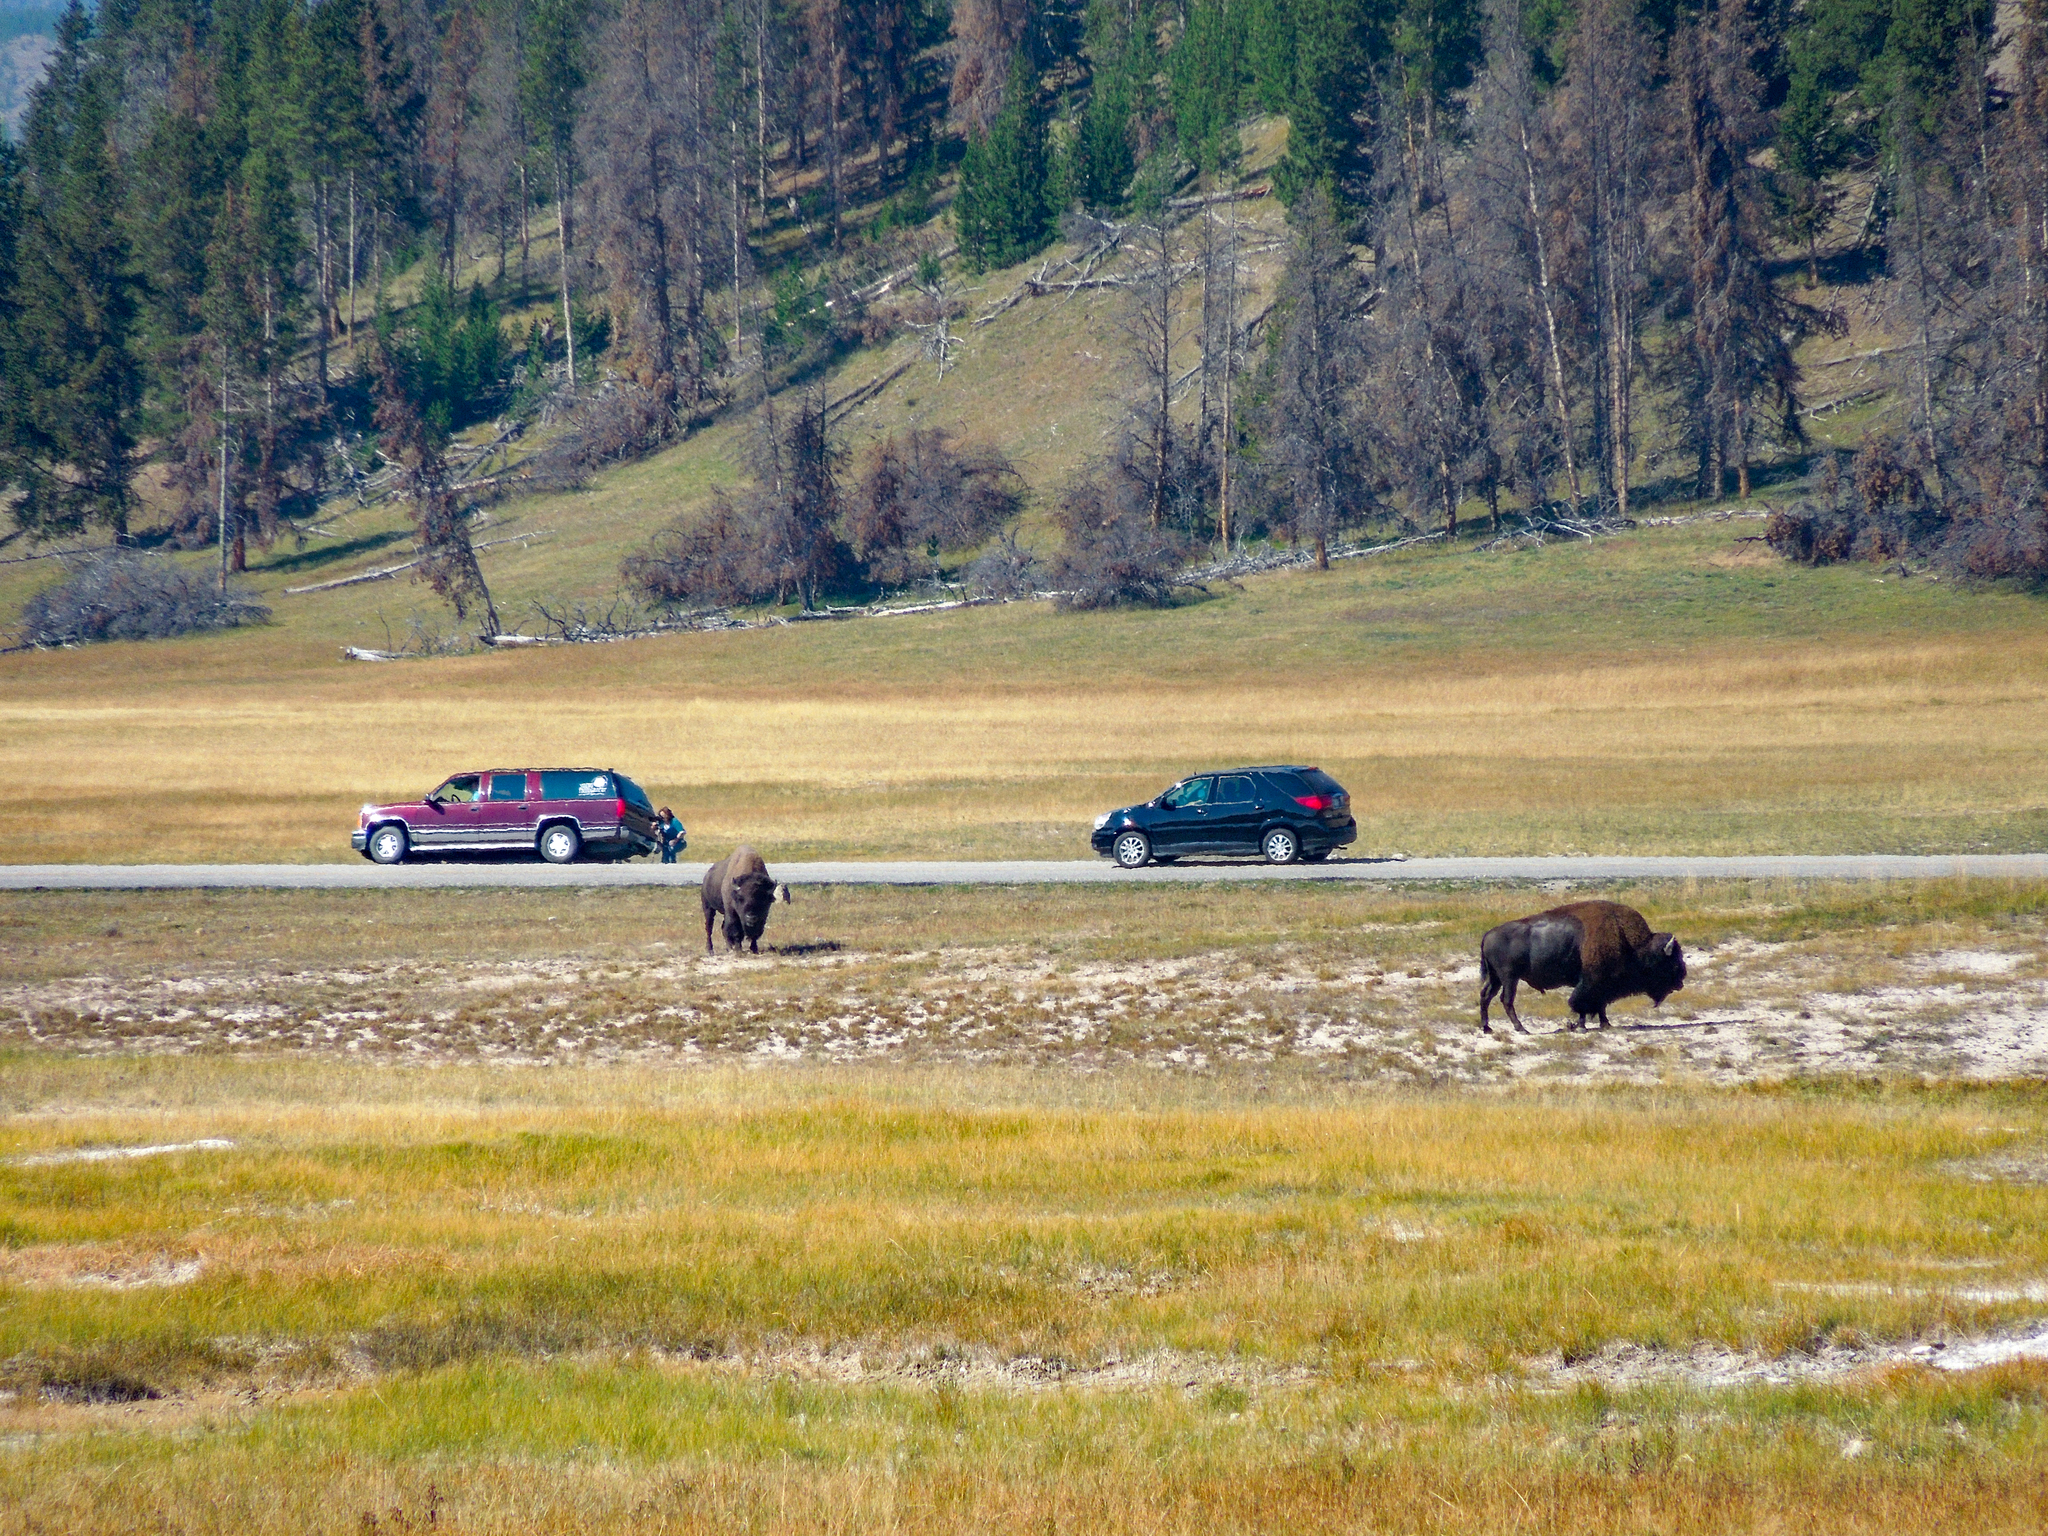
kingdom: Animalia
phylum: Chordata
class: Mammalia
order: Artiodactyla
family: Bovidae
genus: Bison
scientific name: Bison bison
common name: American bison
